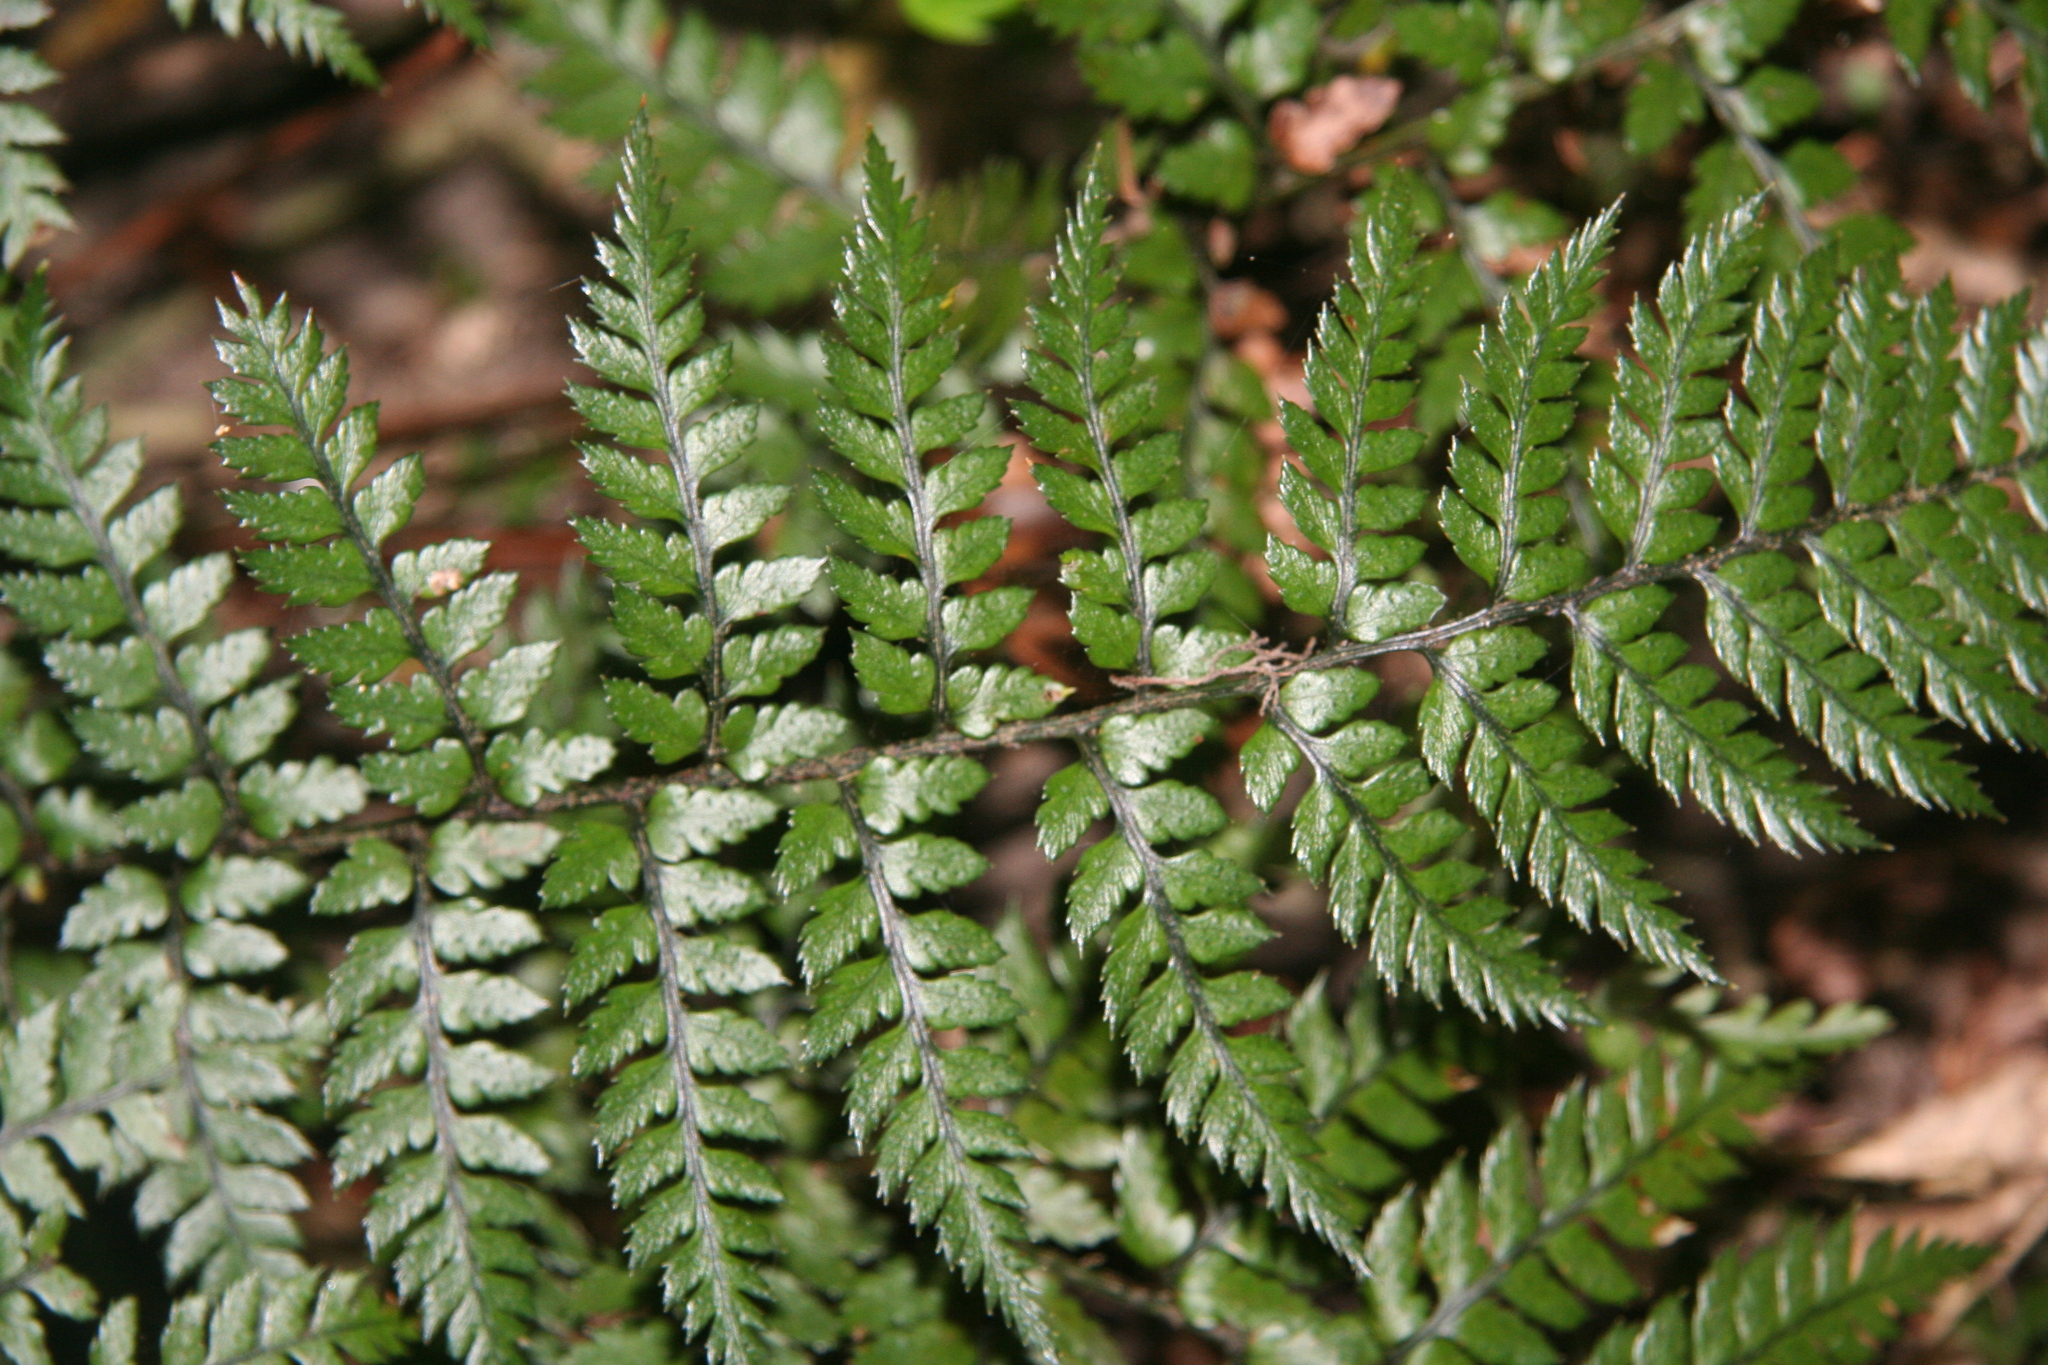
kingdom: Plantae
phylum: Tracheophyta
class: Polypodiopsida
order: Polypodiales
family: Dryopteridaceae
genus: Polystichum
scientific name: Polystichum neozelandicum
